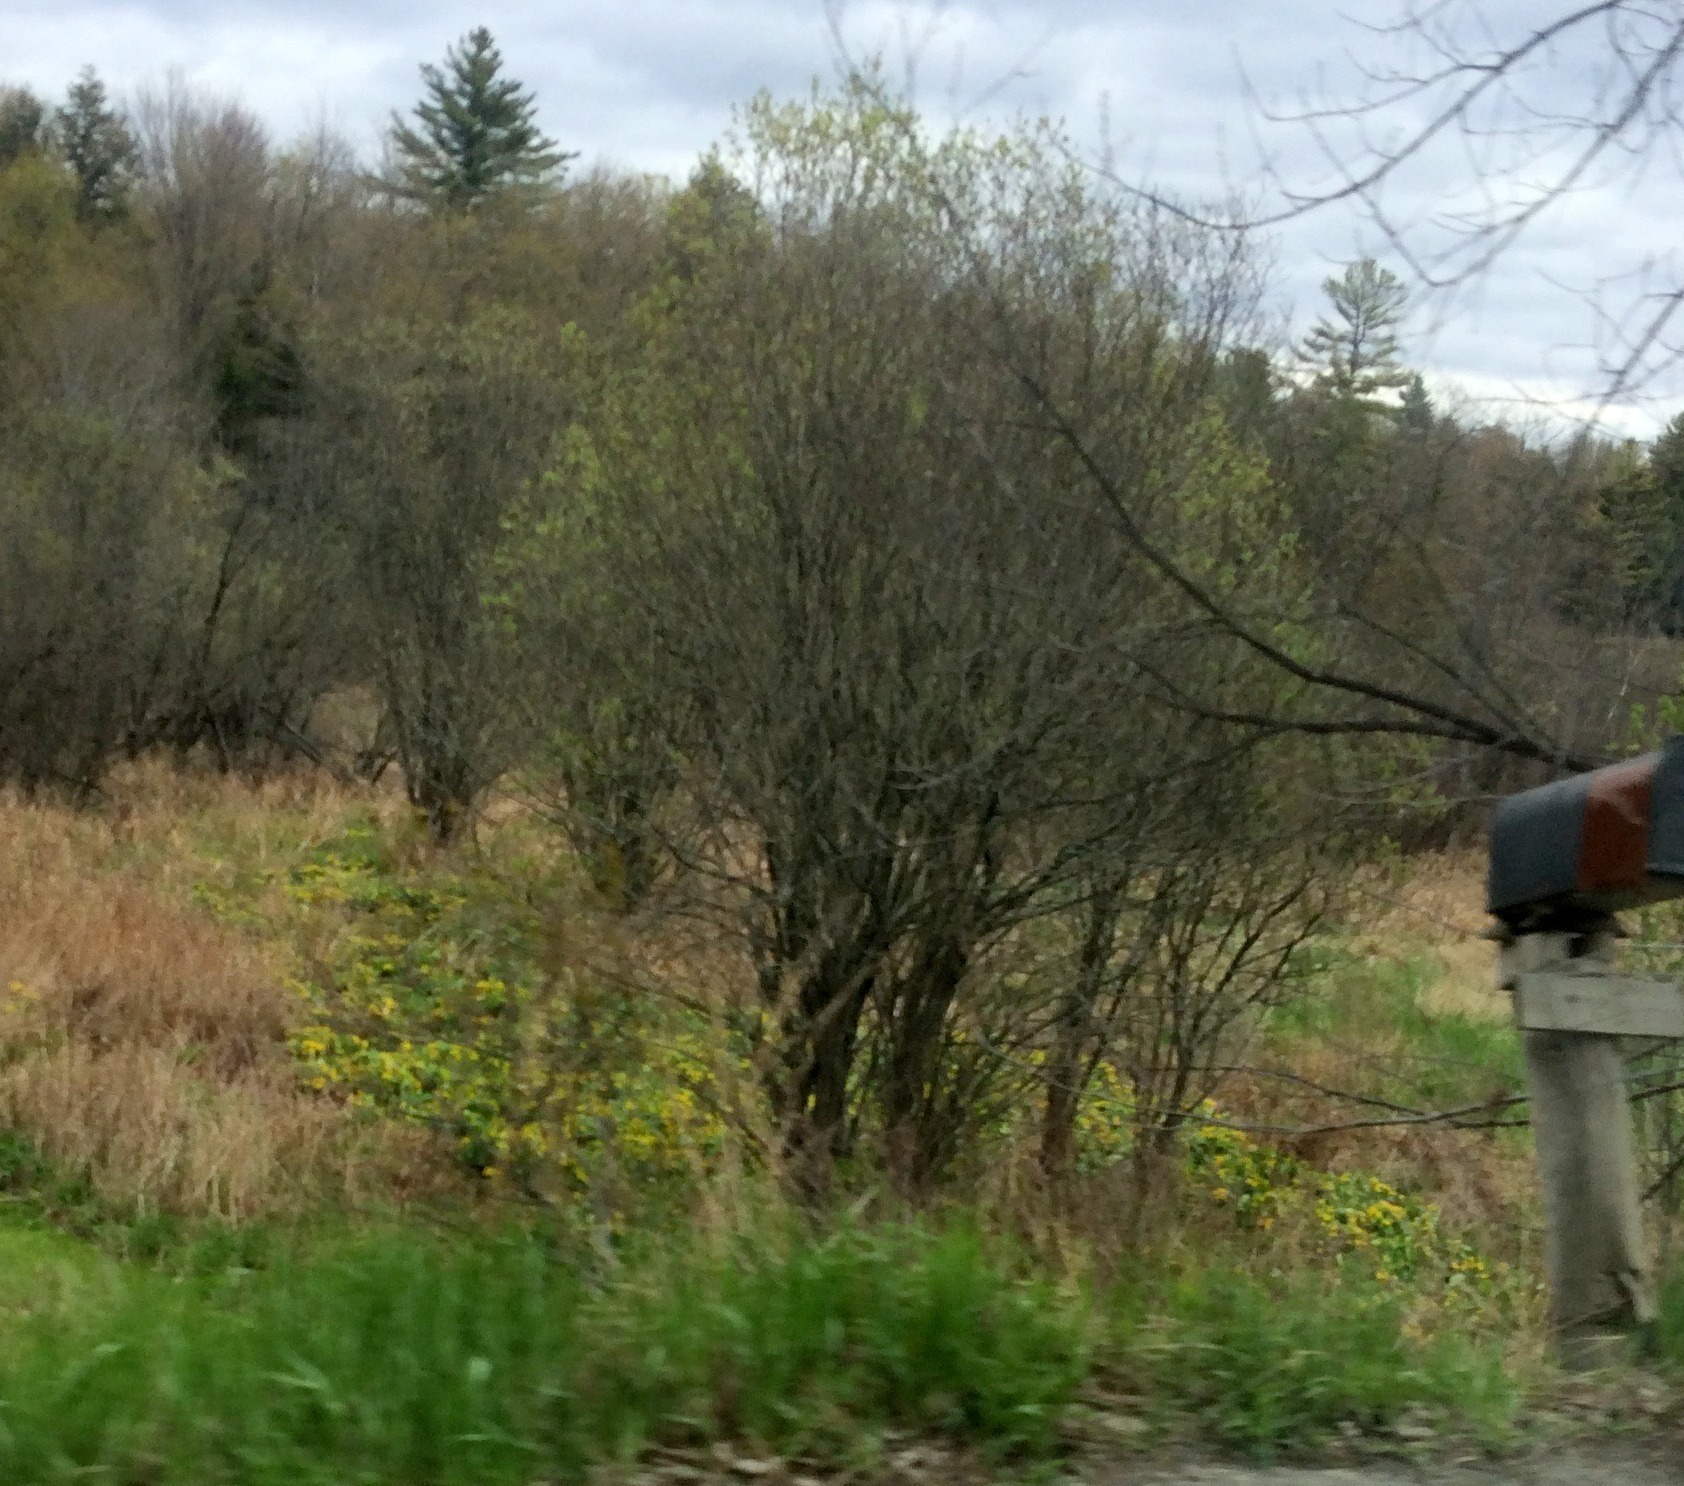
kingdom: Plantae
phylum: Tracheophyta
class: Magnoliopsida
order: Ranunculales
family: Ranunculaceae
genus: Caltha
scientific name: Caltha palustris
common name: Marsh marigold
